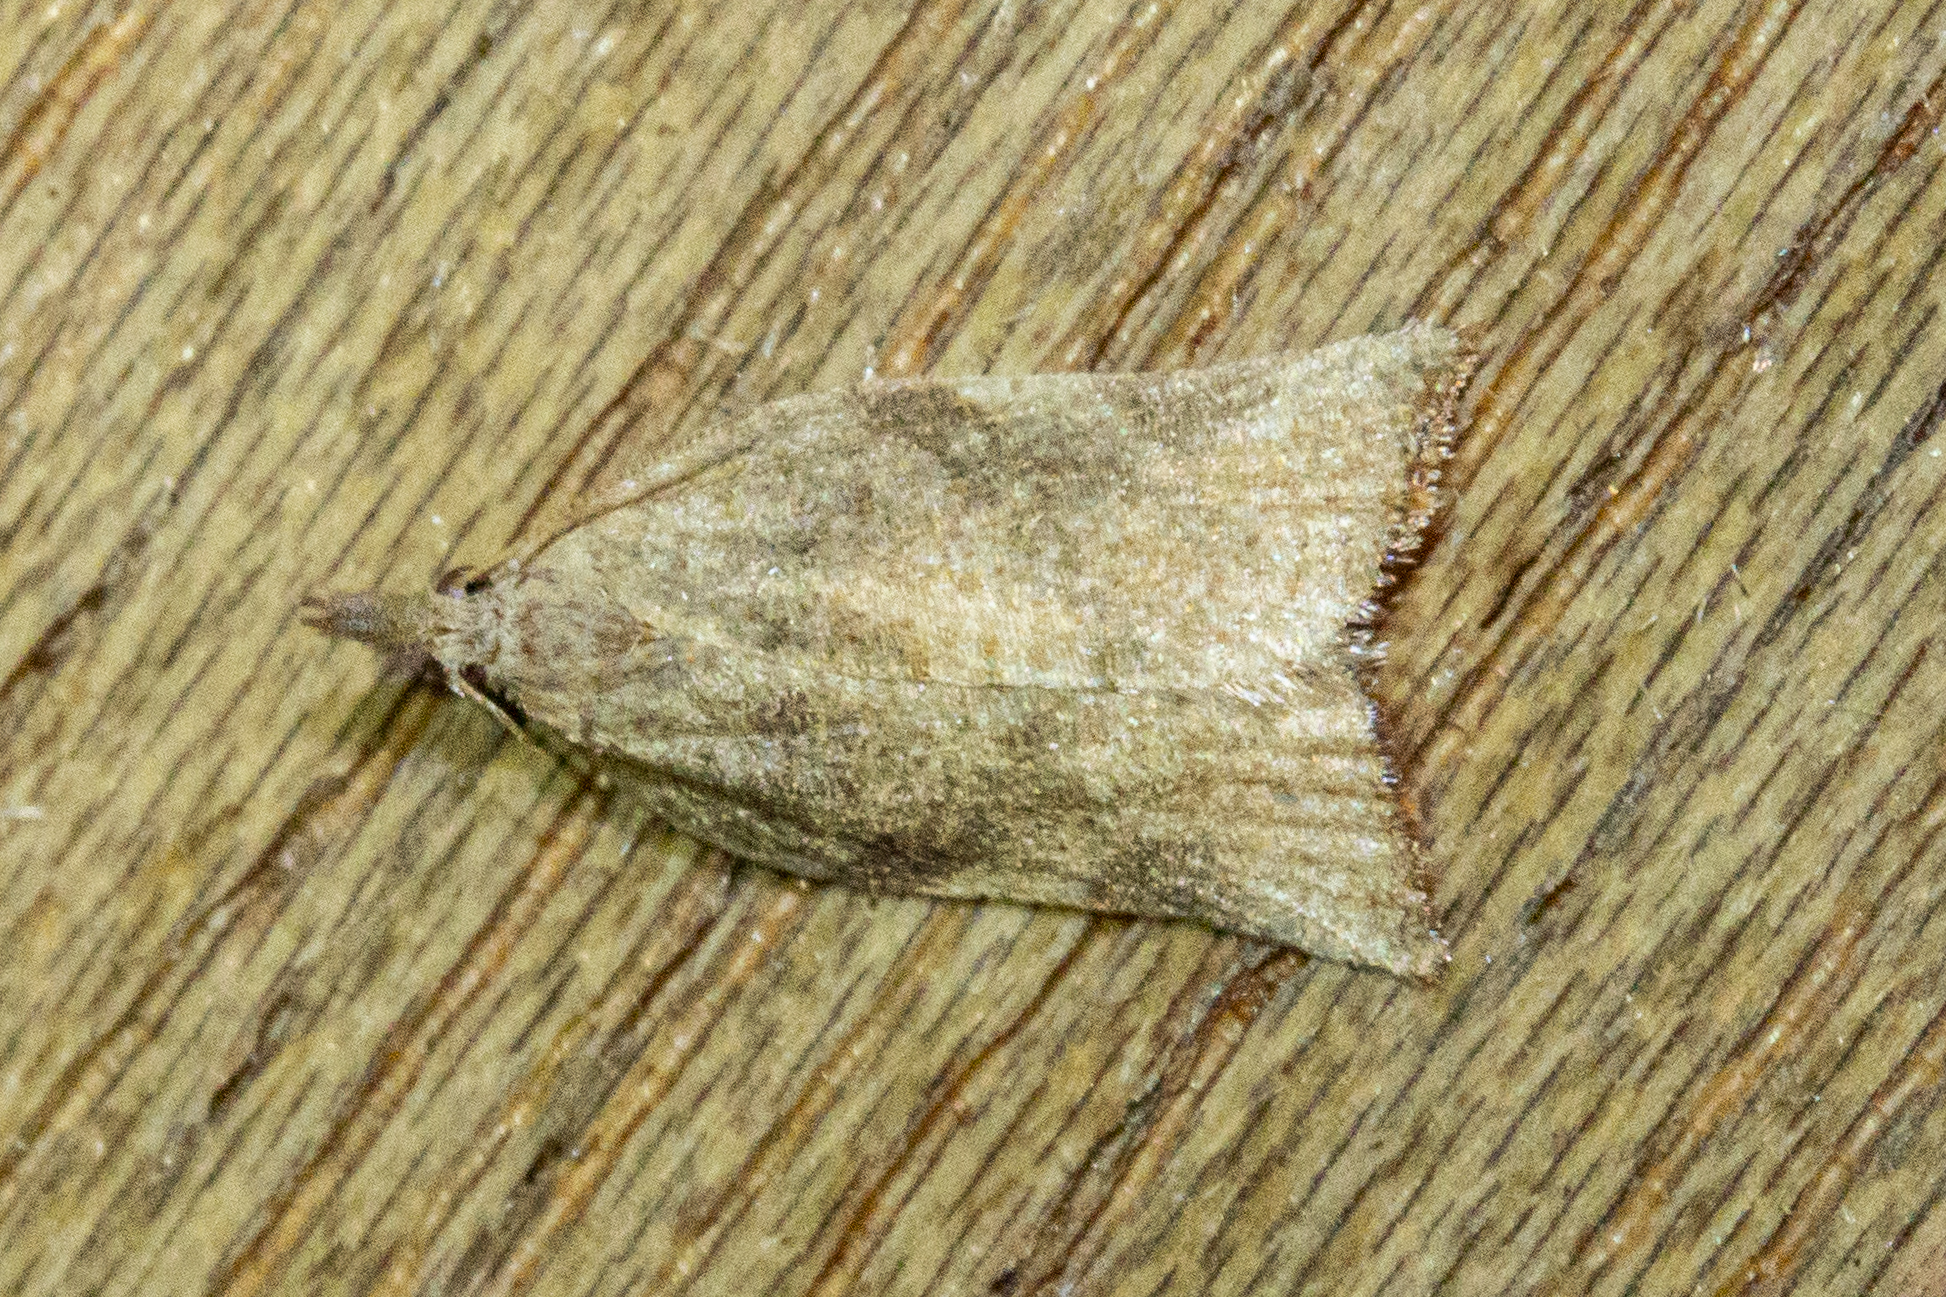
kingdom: Animalia
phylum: Arthropoda
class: Insecta
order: Lepidoptera
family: Tortricidae
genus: Catamacta
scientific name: Catamacta gavisana
